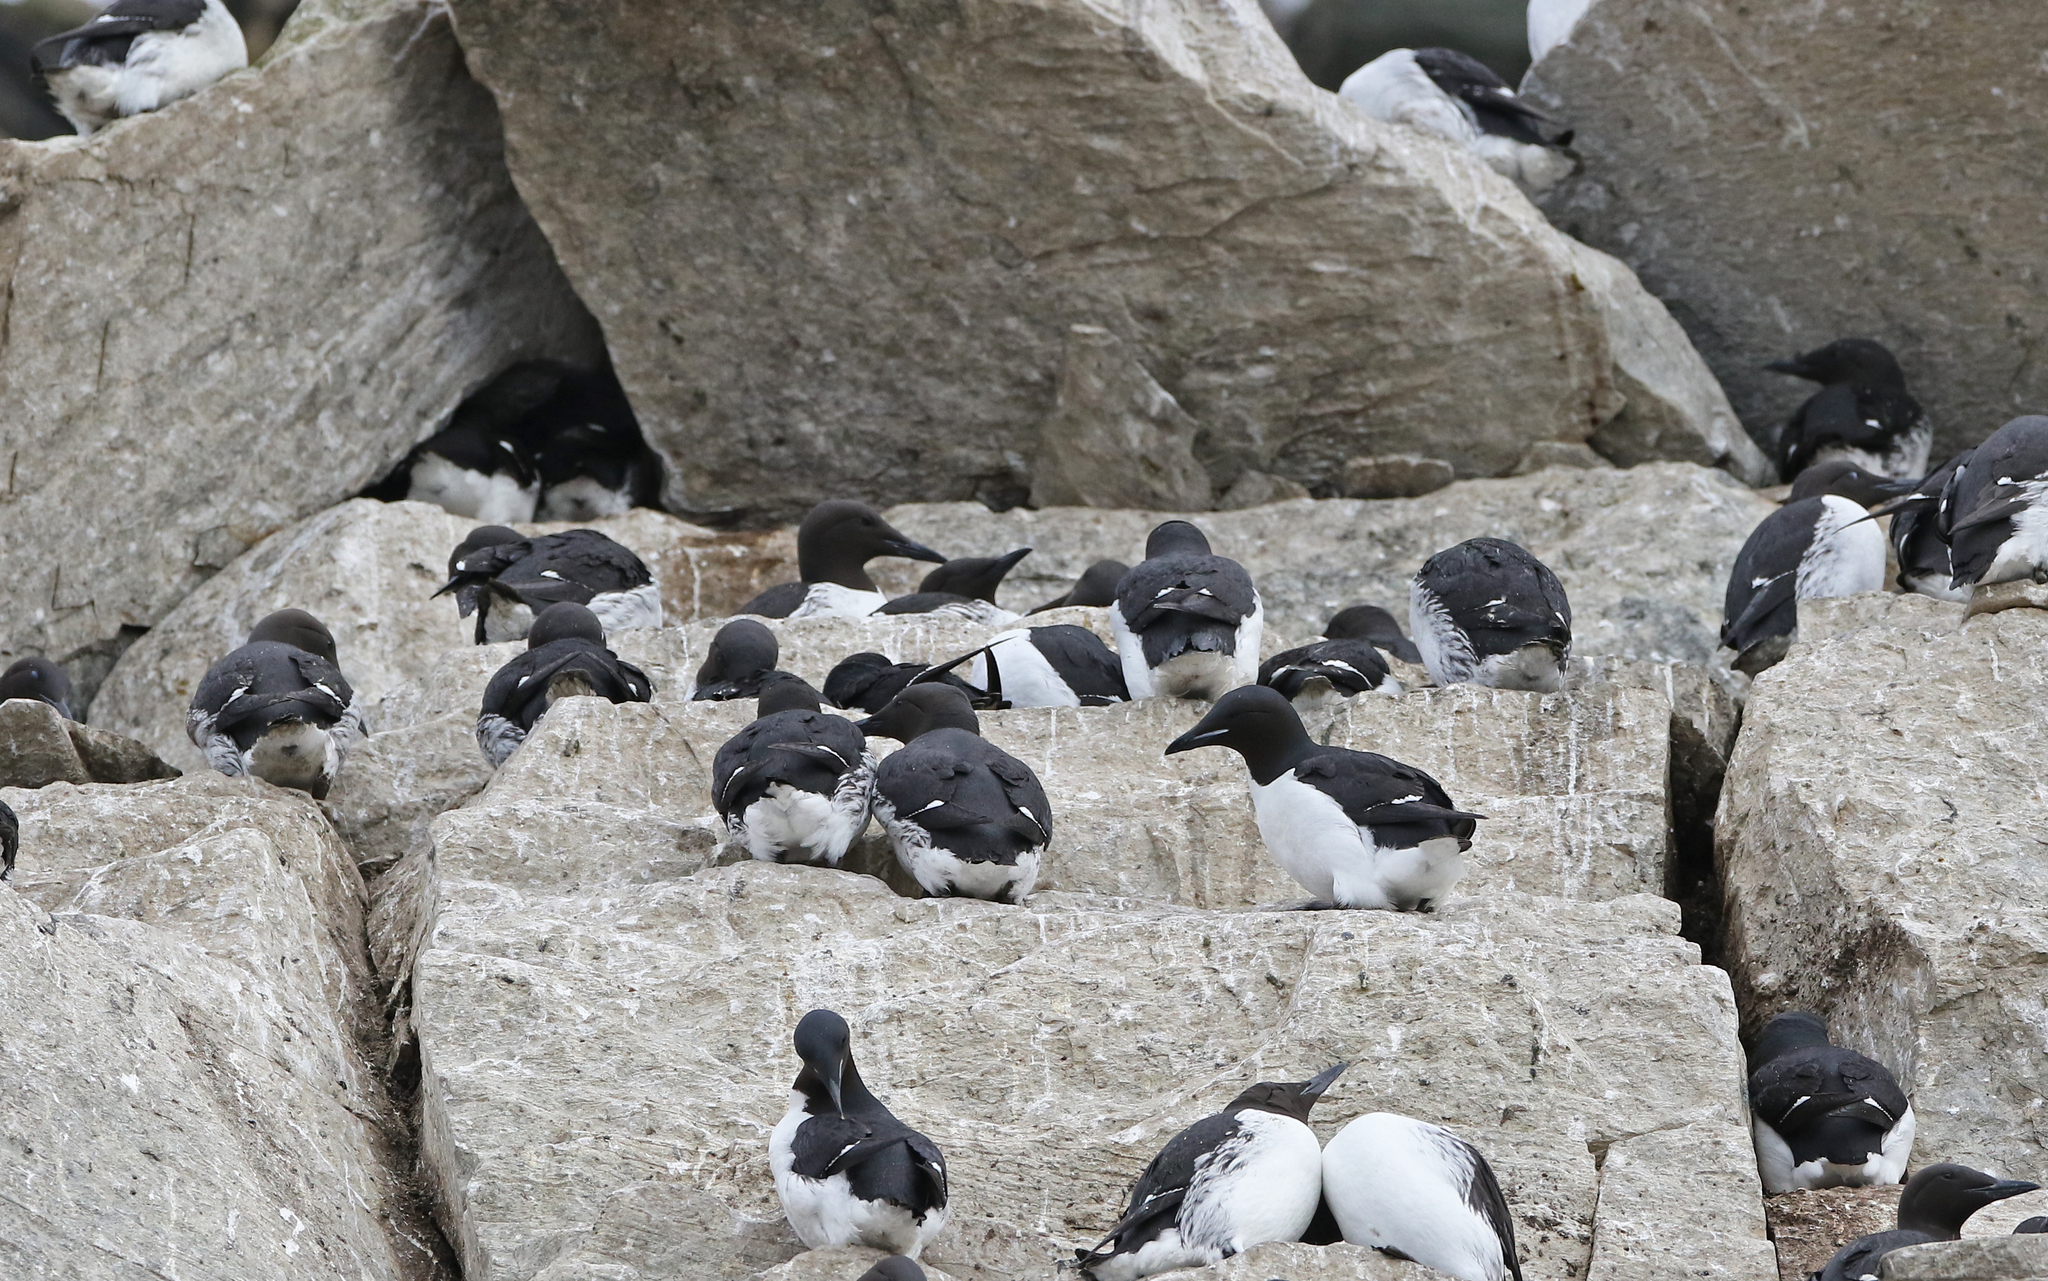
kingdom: Animalia
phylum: Chordata
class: Aves
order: Charadriiformes
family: Alcidae
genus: Uria
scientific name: Uria lomvia
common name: Thick-billed murre
